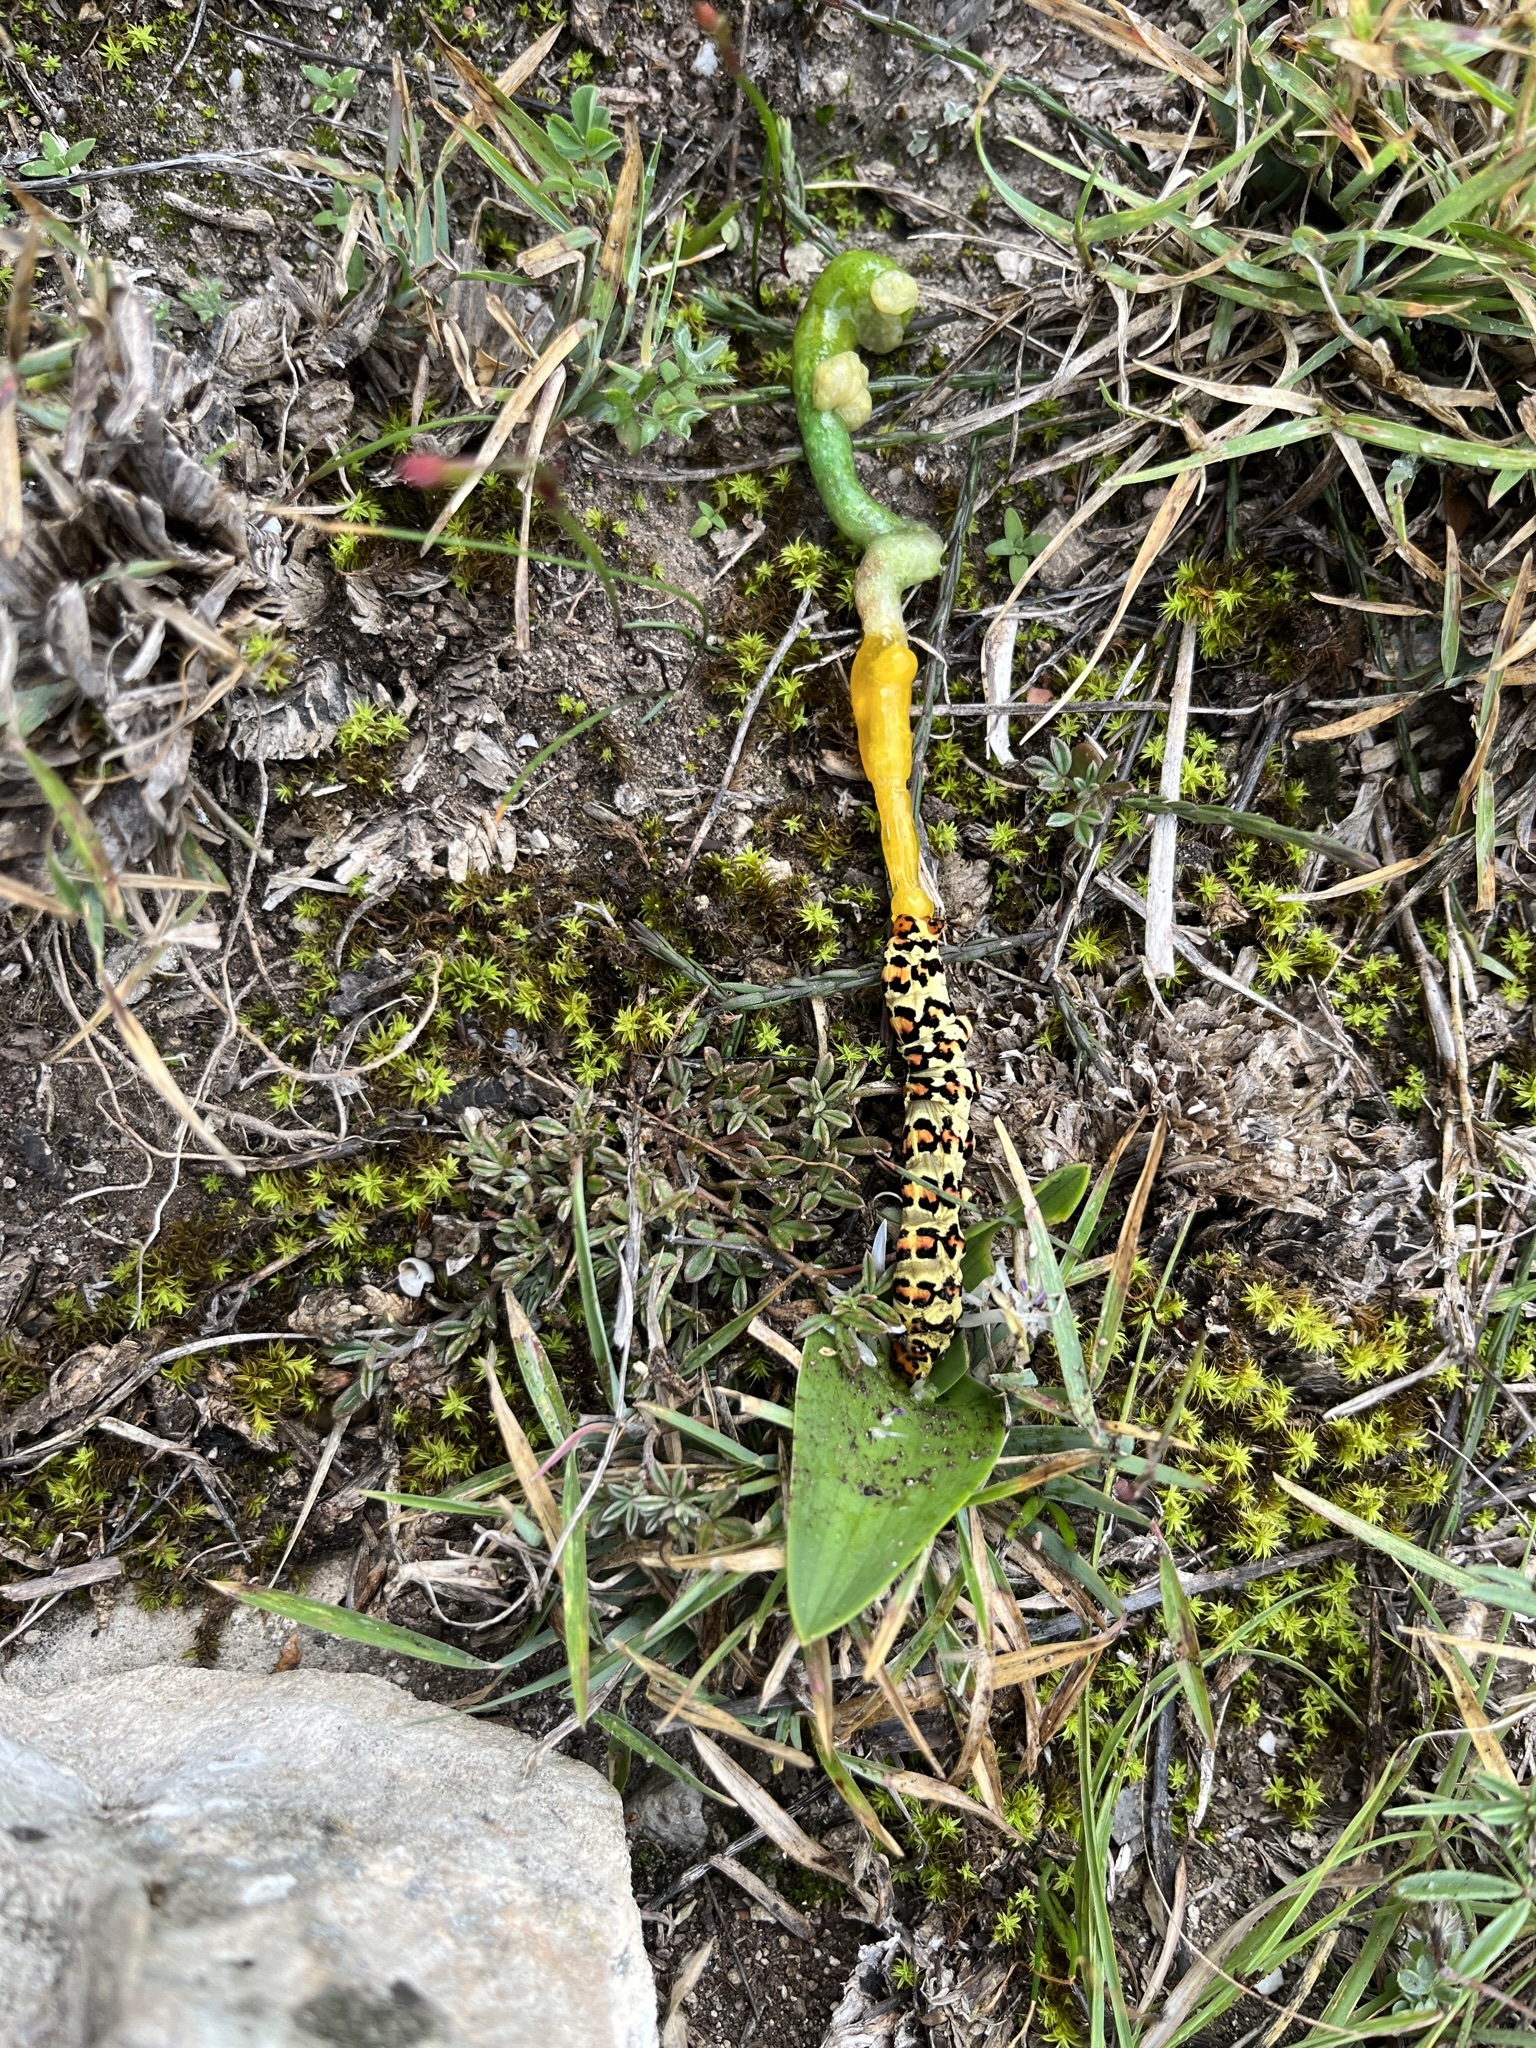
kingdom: Animalia
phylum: Arthropoda
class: Insecta
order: Lepidoptera
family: Noctuidae
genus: Diaphone
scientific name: Diaphone eumela
